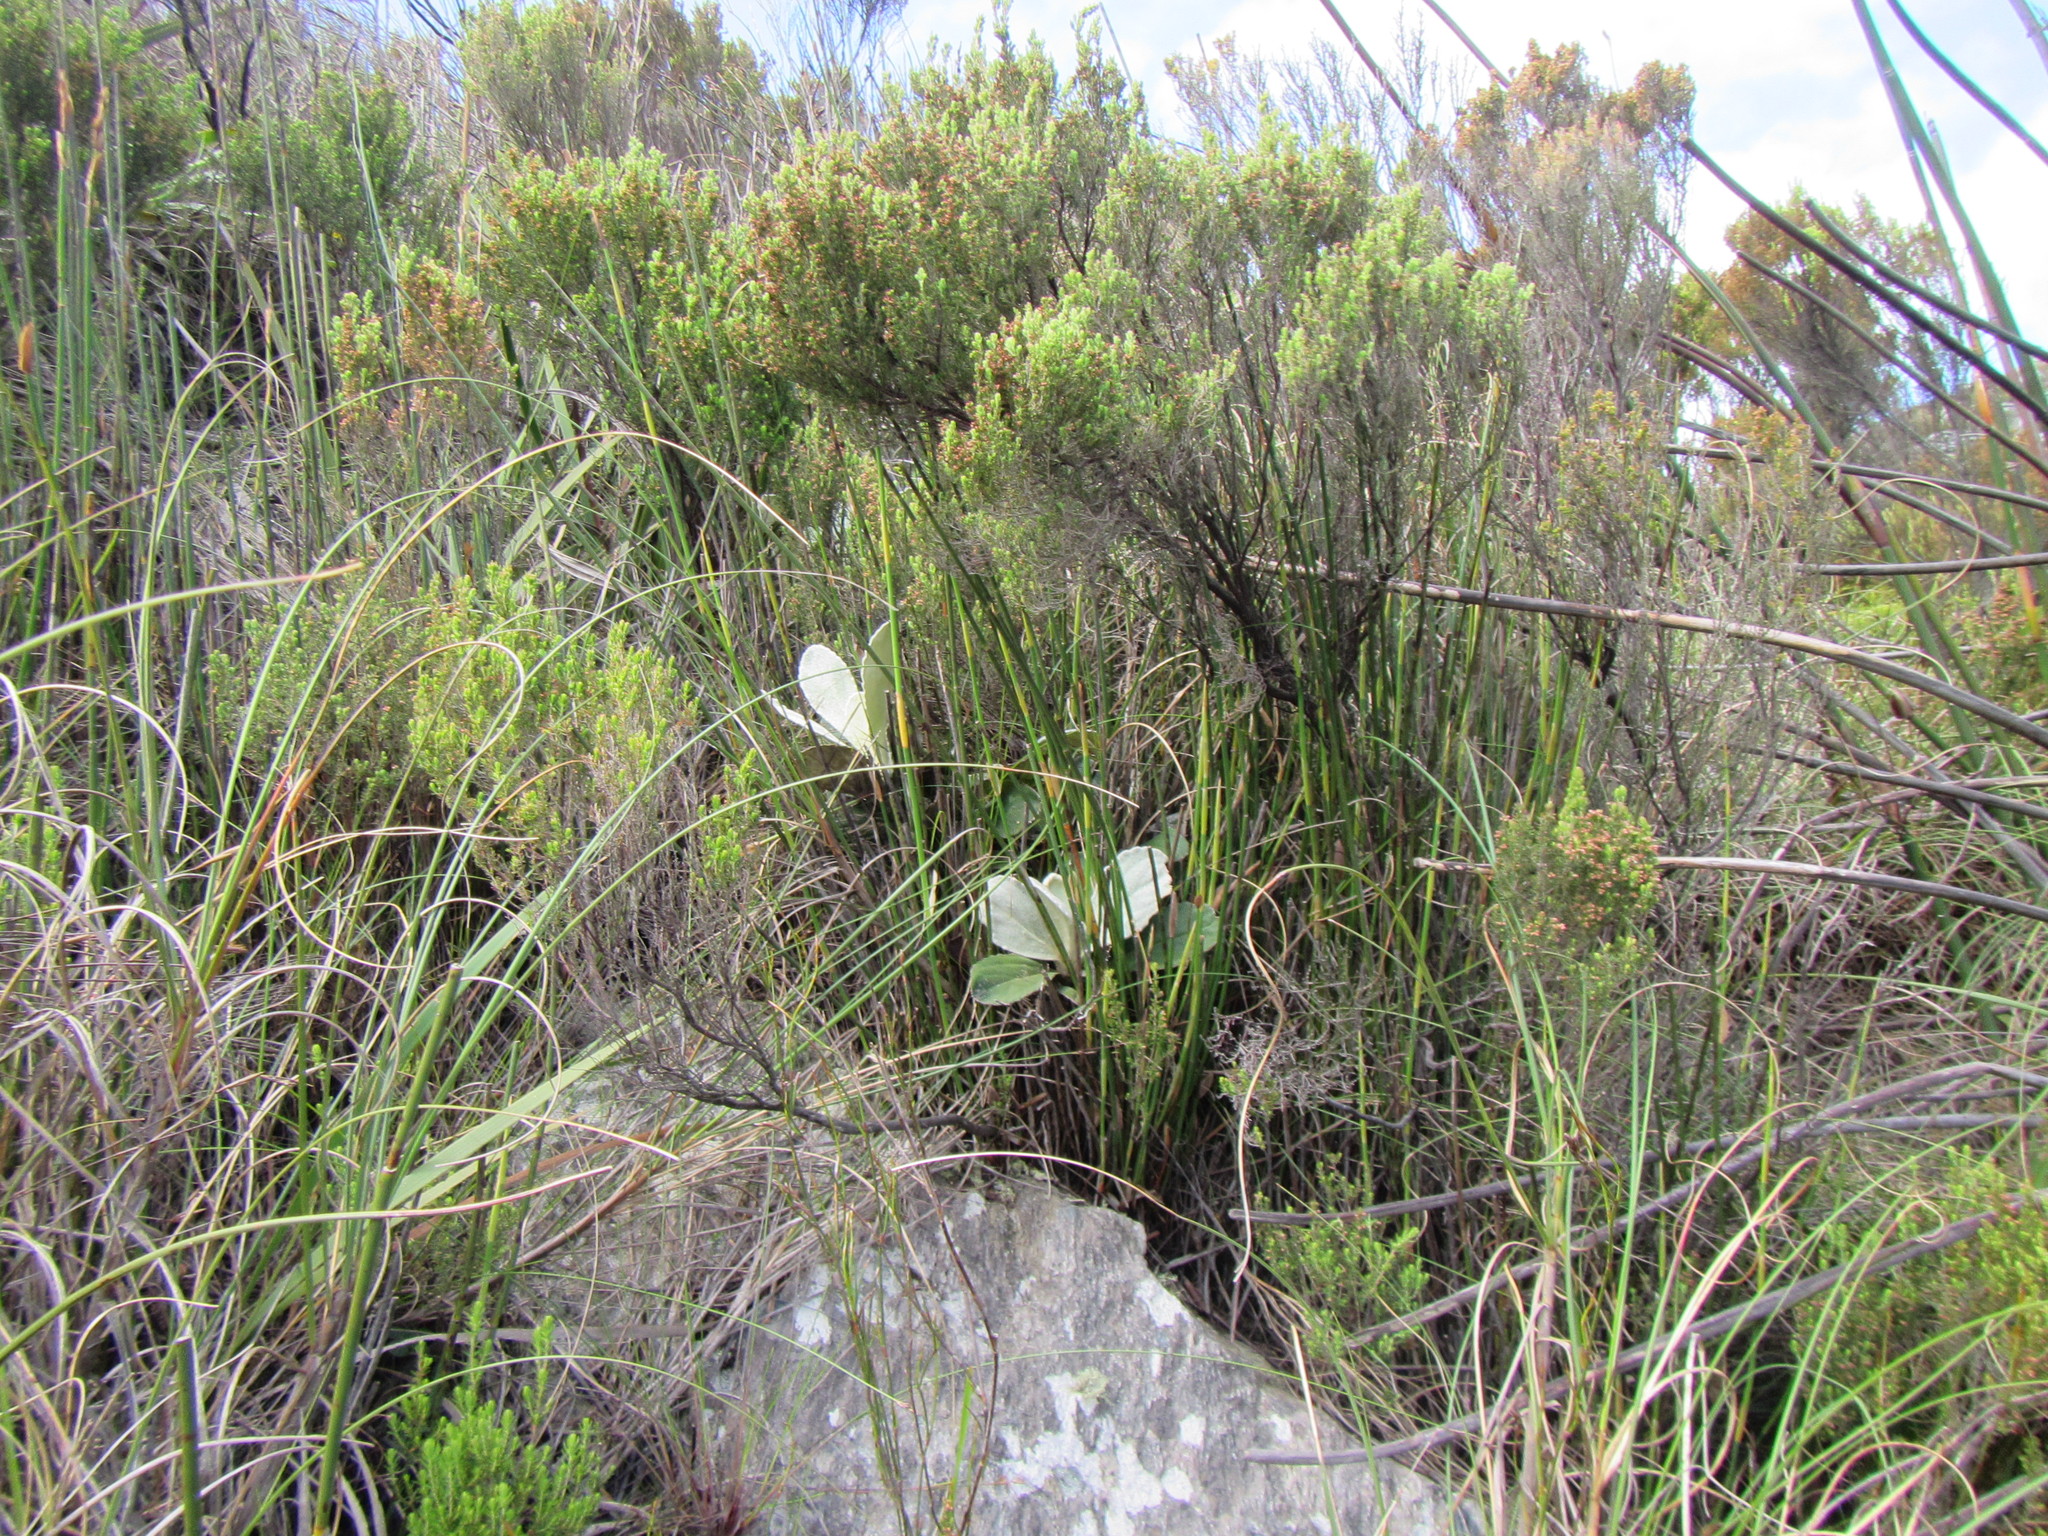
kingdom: Plantae
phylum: Tracheophyta
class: Magnoliopsida
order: Asterales
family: Asteraceae
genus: Mairia
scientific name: Mairia robusta
